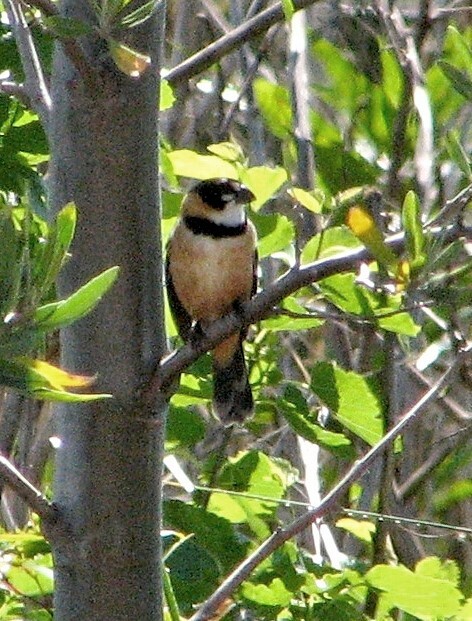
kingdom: Animalia
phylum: Chordata
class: Aves
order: Passeriformes
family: Thraupidae
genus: Sporophila
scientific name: Sporophila collaris
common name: Rusty-collared seedeater
